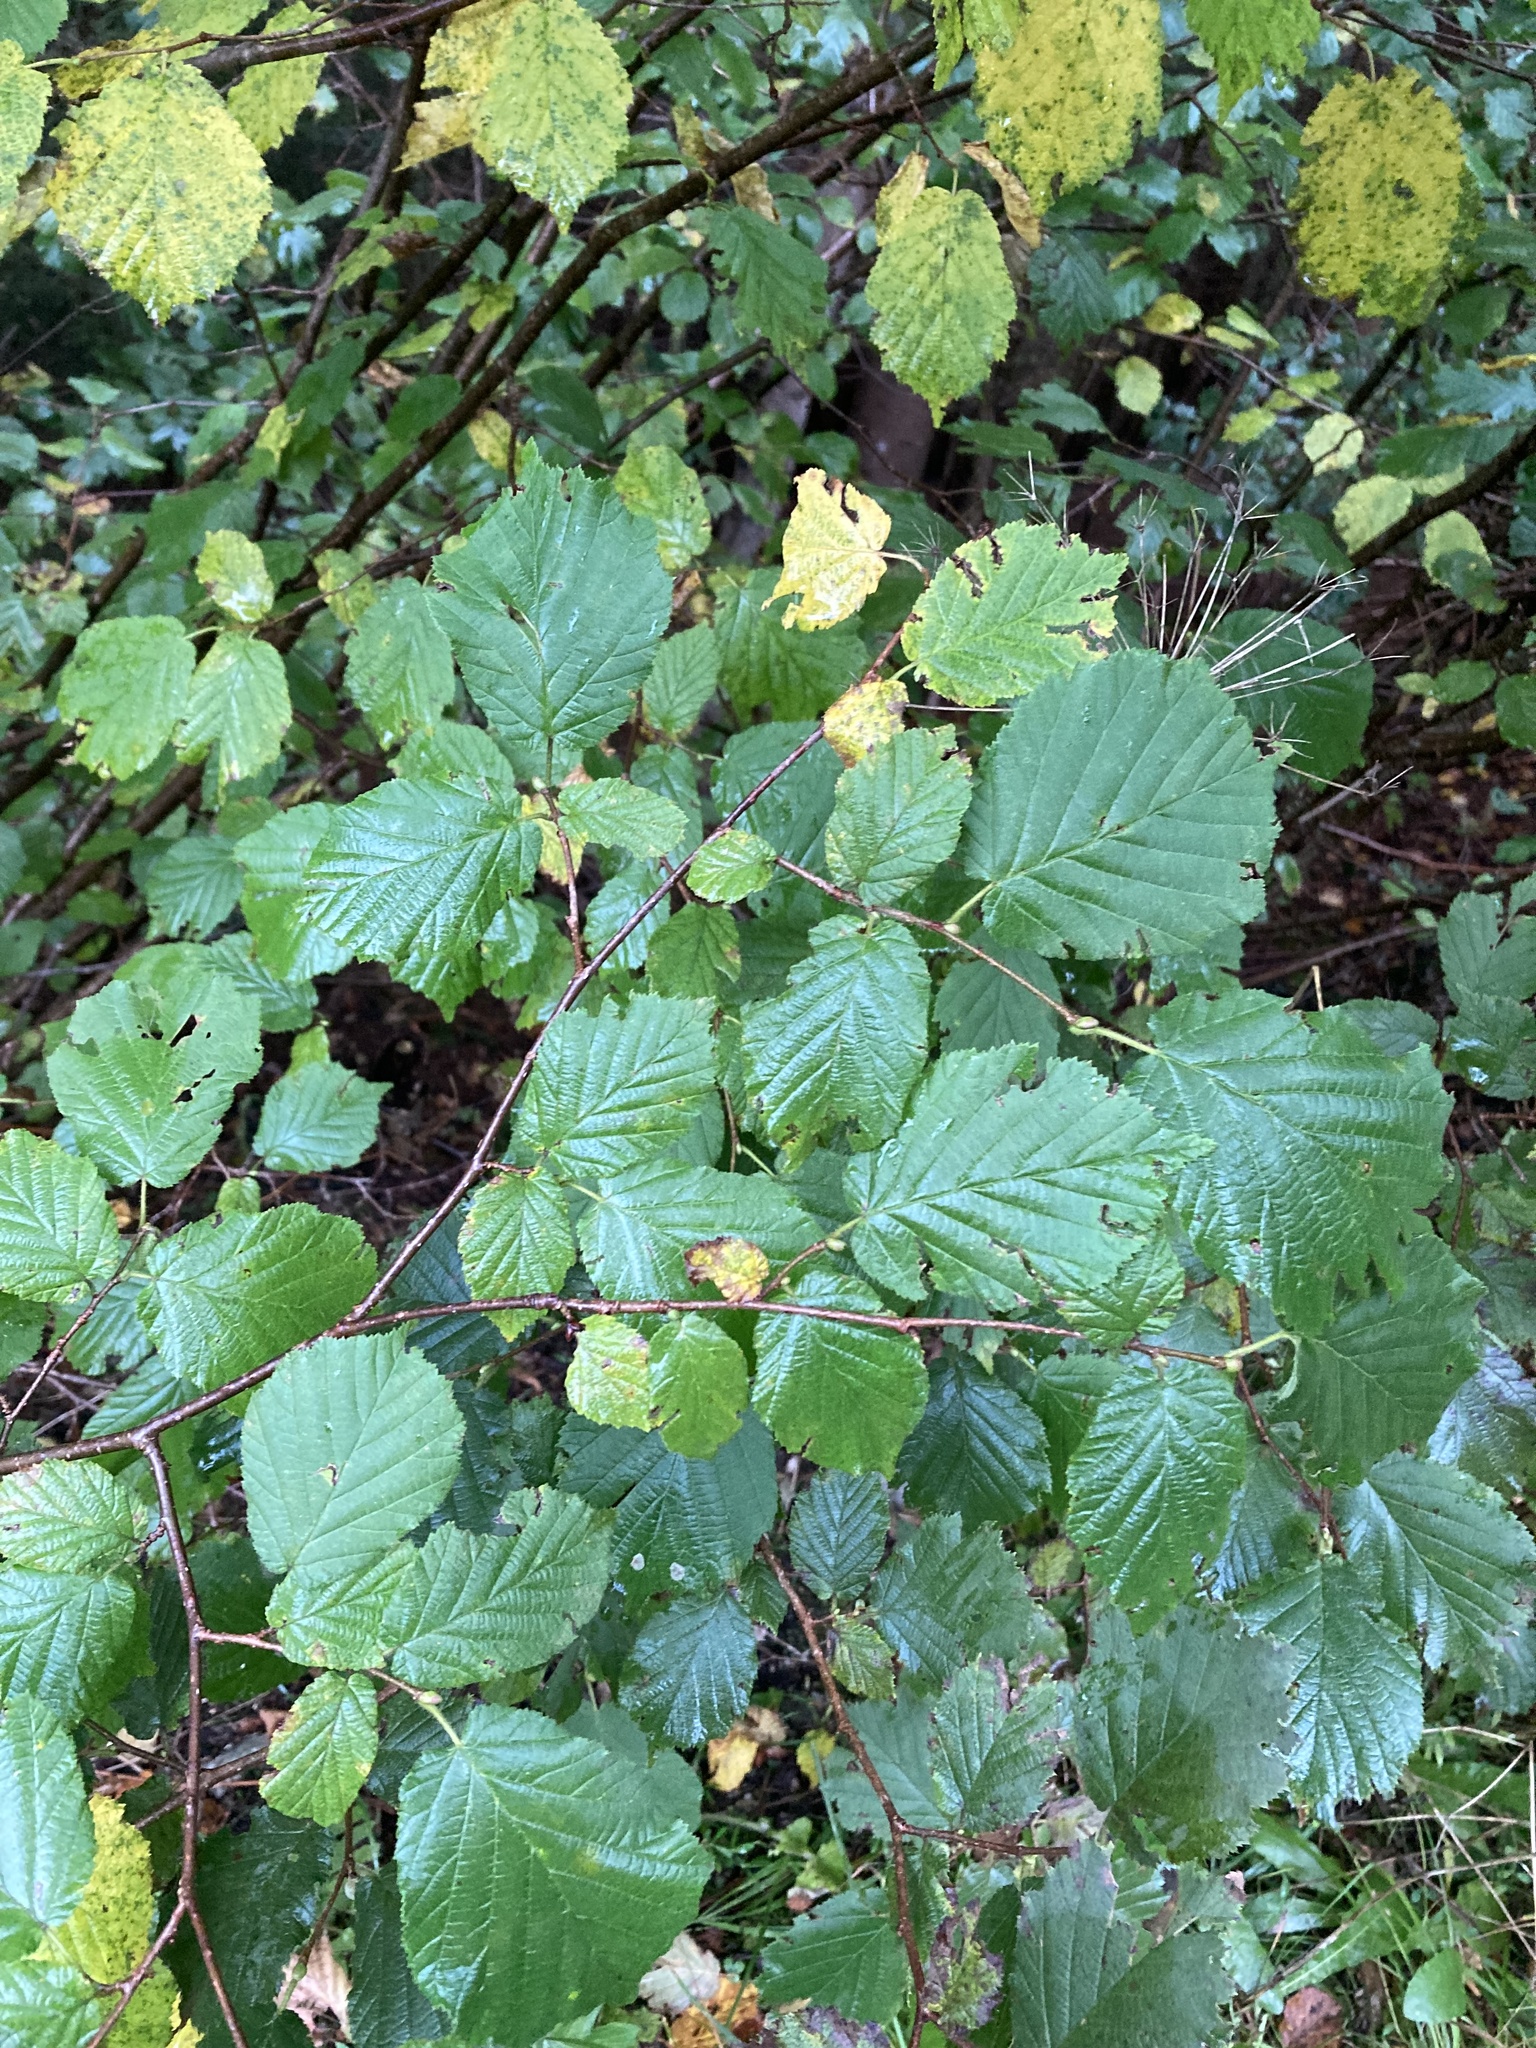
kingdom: Plantae
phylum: Tracheophyta
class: Magnoliopsida
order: Fagales
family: Betulaceae
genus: Corylus
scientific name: Corylus avellana
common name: European hazel
